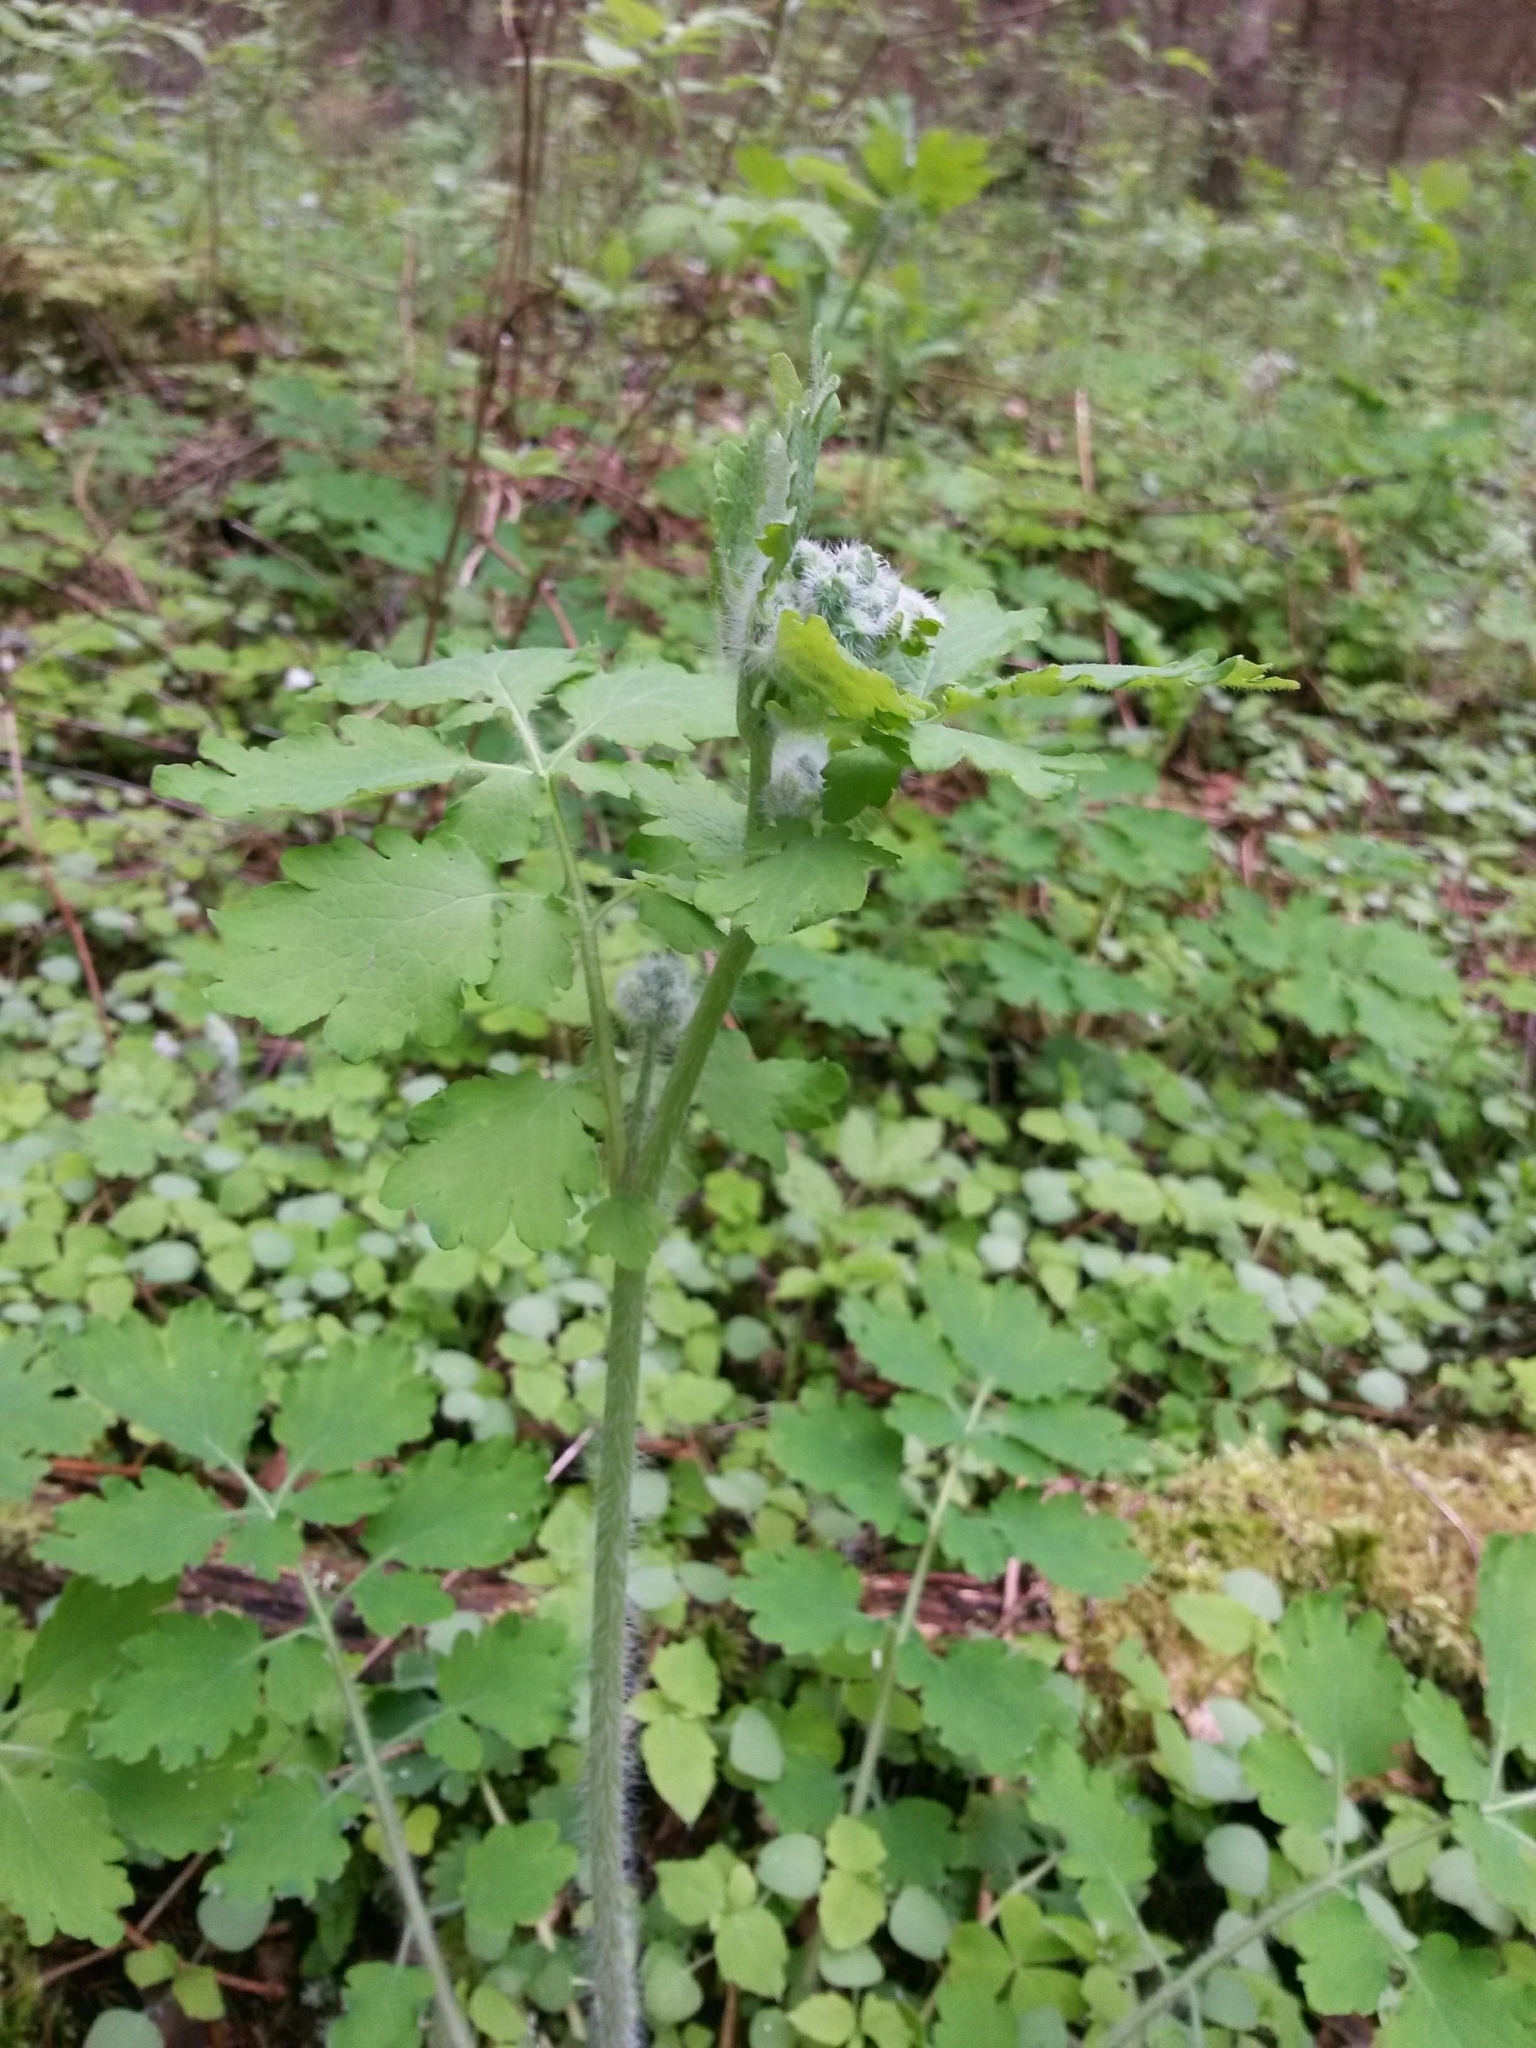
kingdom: Plantae
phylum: Tracheophyta
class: Magnoliopsida
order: Ranunculales
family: Papaveraceae
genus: Chelidonium
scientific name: Chelidonium majus
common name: Greater celandine
